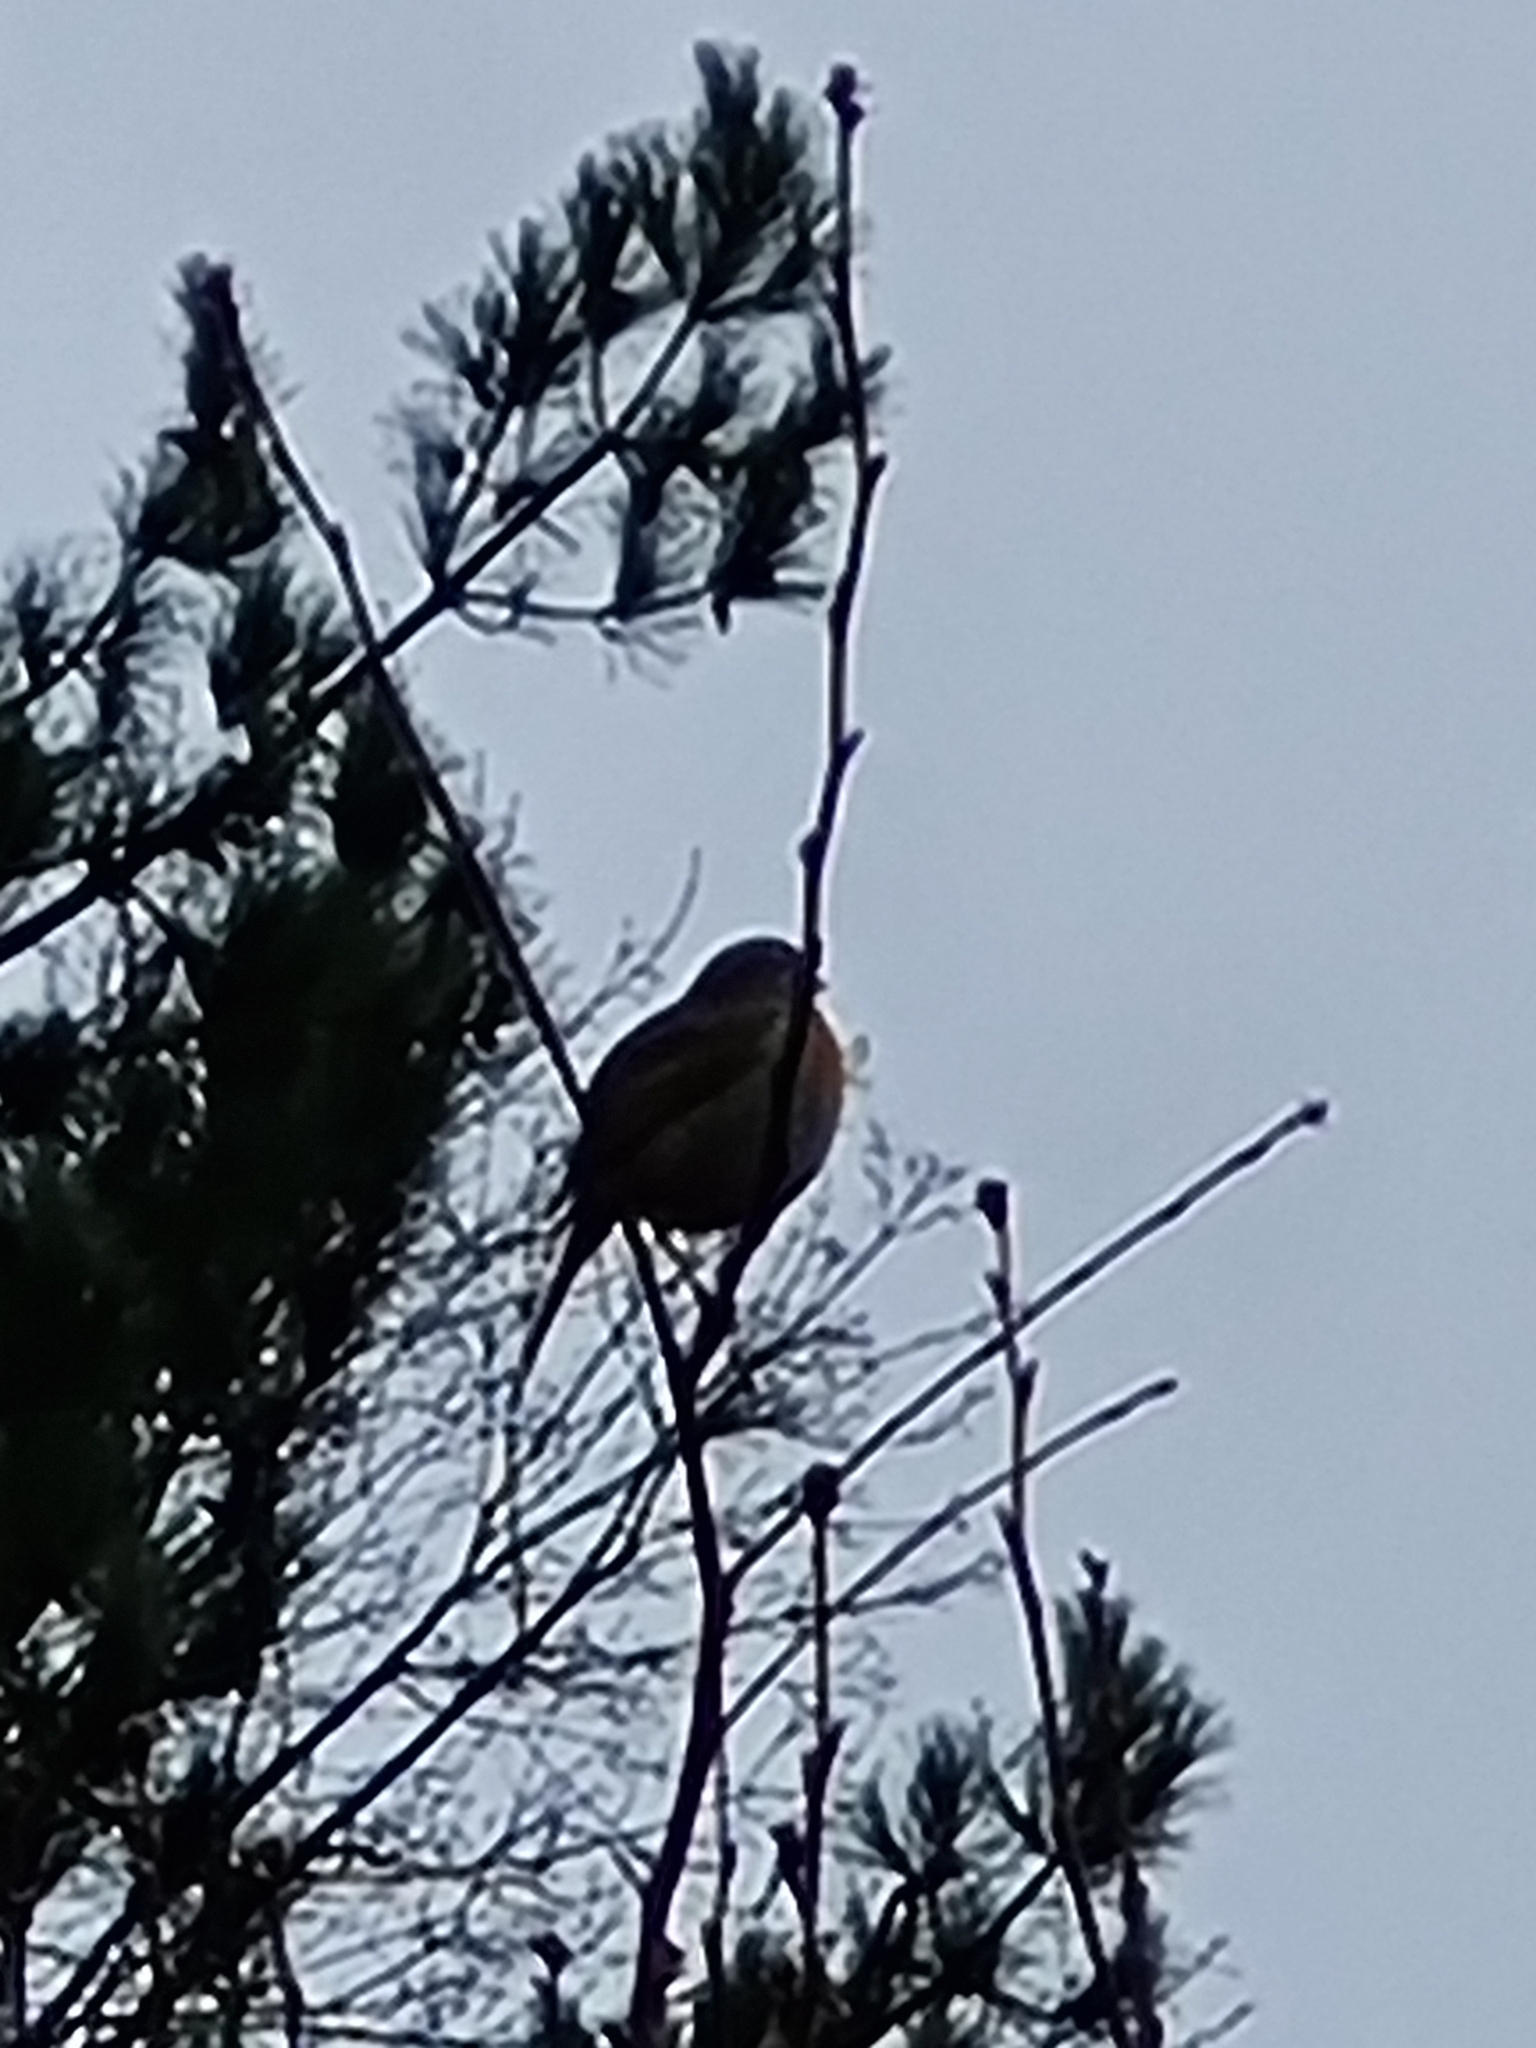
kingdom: Animalia
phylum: Chordata
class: Aves
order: Passeriformes
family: Muscicapidae
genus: Erithacus
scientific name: Erithacus rubecula
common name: European robin
